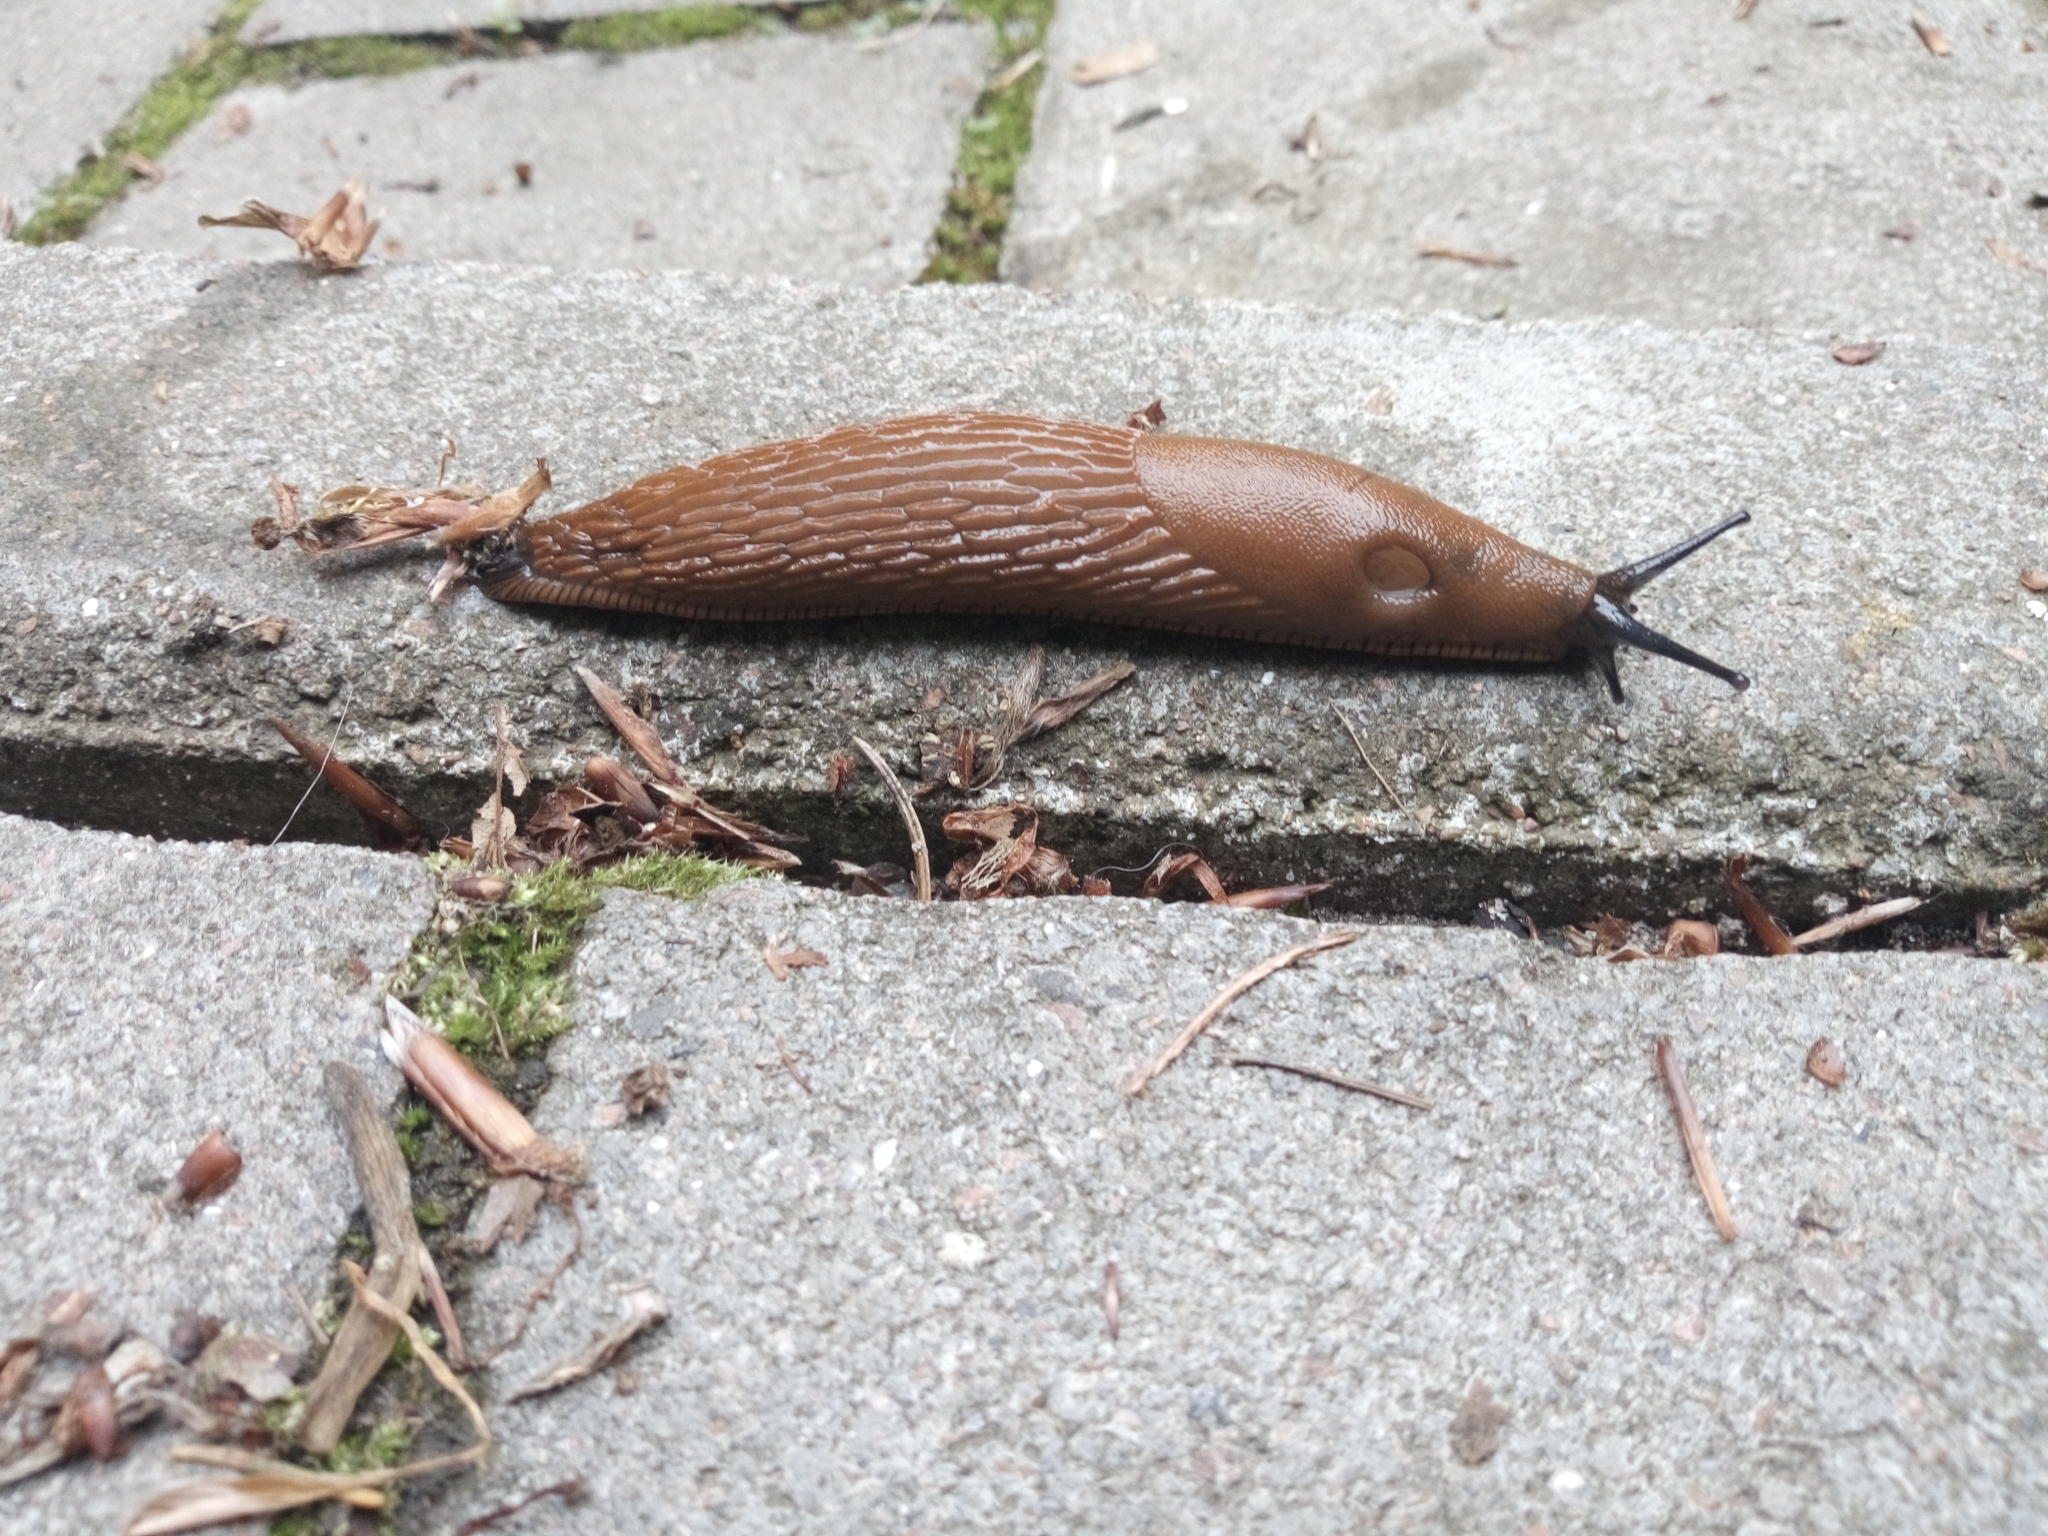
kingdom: Animalia
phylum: Mollusca
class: Gastropoda
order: Stylommatophora
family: Arionidae
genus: Arion
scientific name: Arion vulgaris
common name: Lusitanian slug
